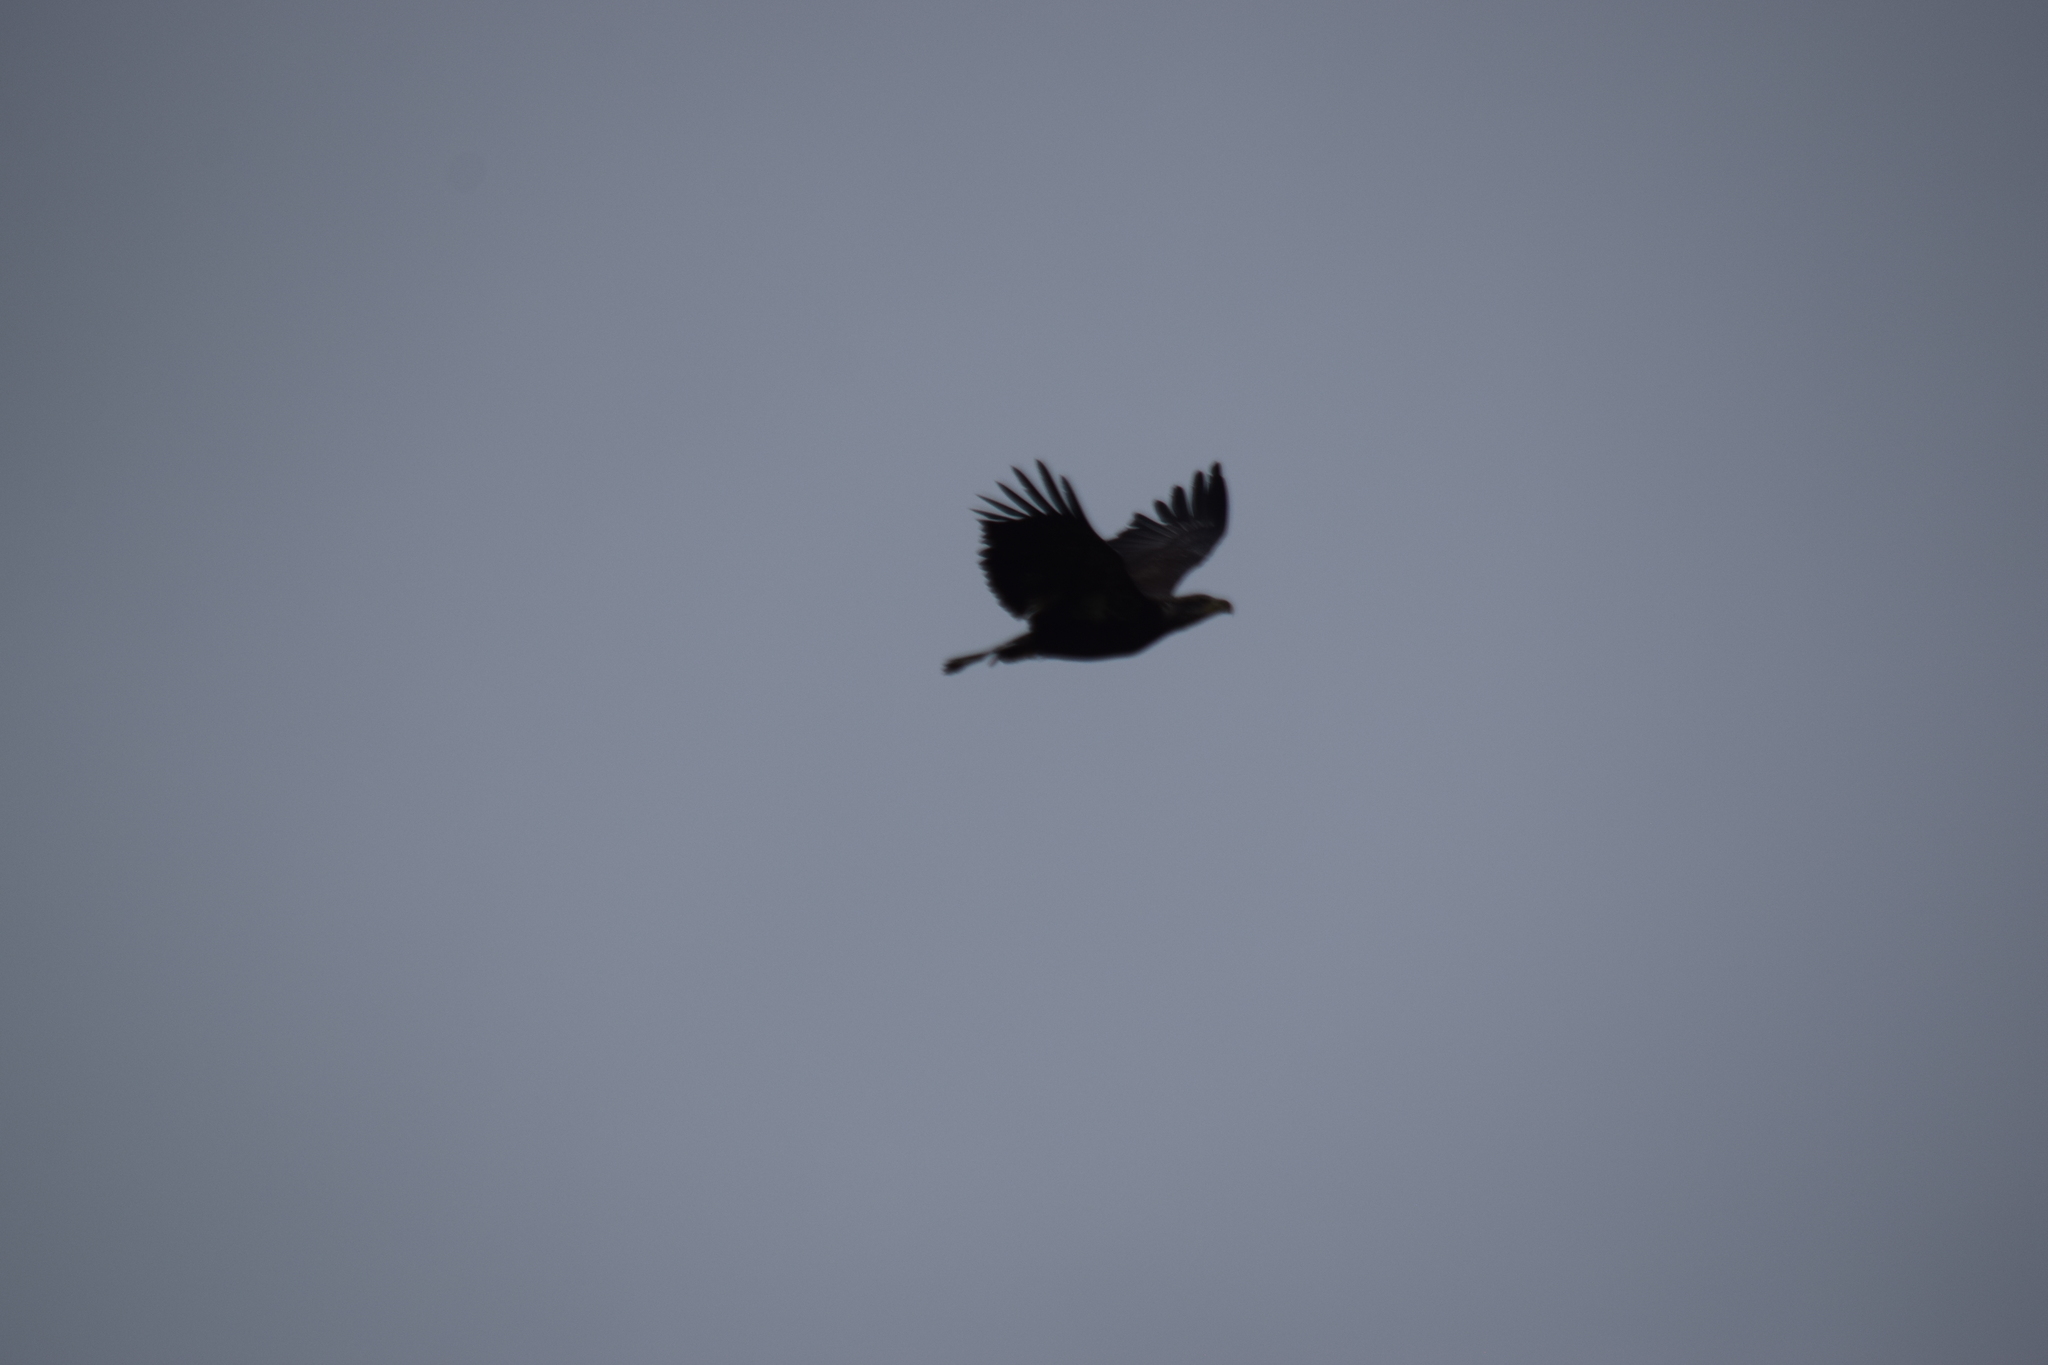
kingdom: Animalia
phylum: Chordata
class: Aves
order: Accipitriformes
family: Accipitridae
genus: Haliaeetus
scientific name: Haliaeetus leucocephalus
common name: Bald eagle
